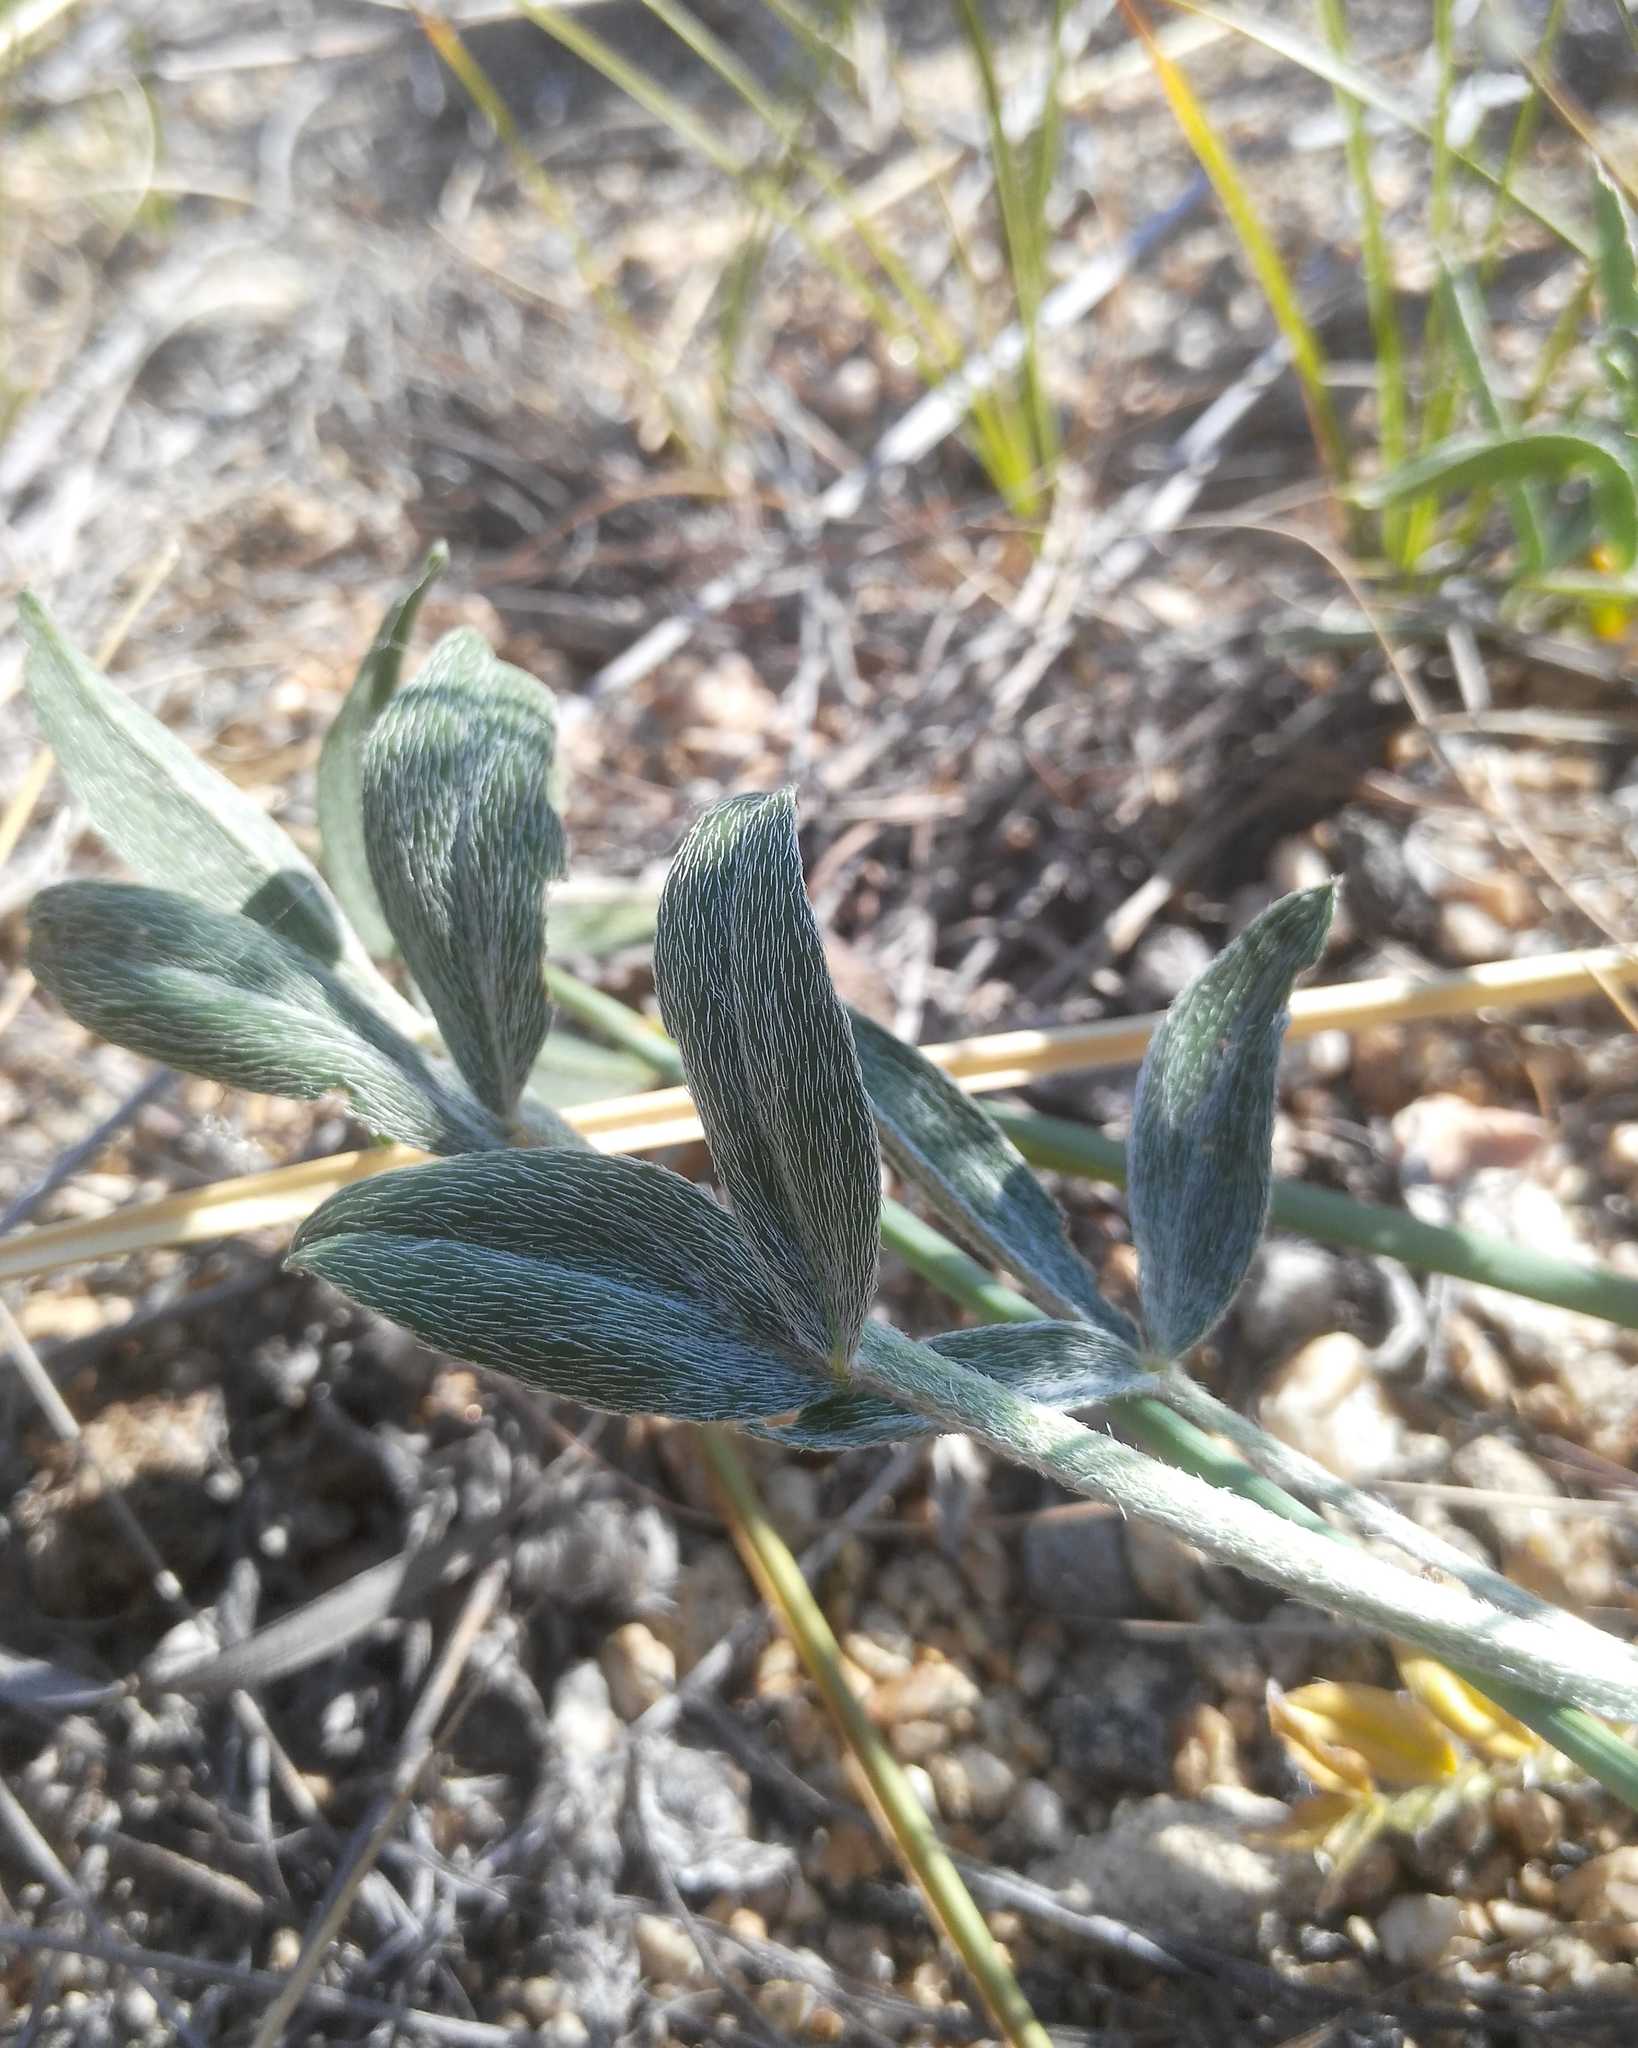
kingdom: Plantae
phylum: Tracheophyta
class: Magnoliopsida
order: Fabales
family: Fabaceae
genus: Astragalus
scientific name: Astragalus lupulinus
